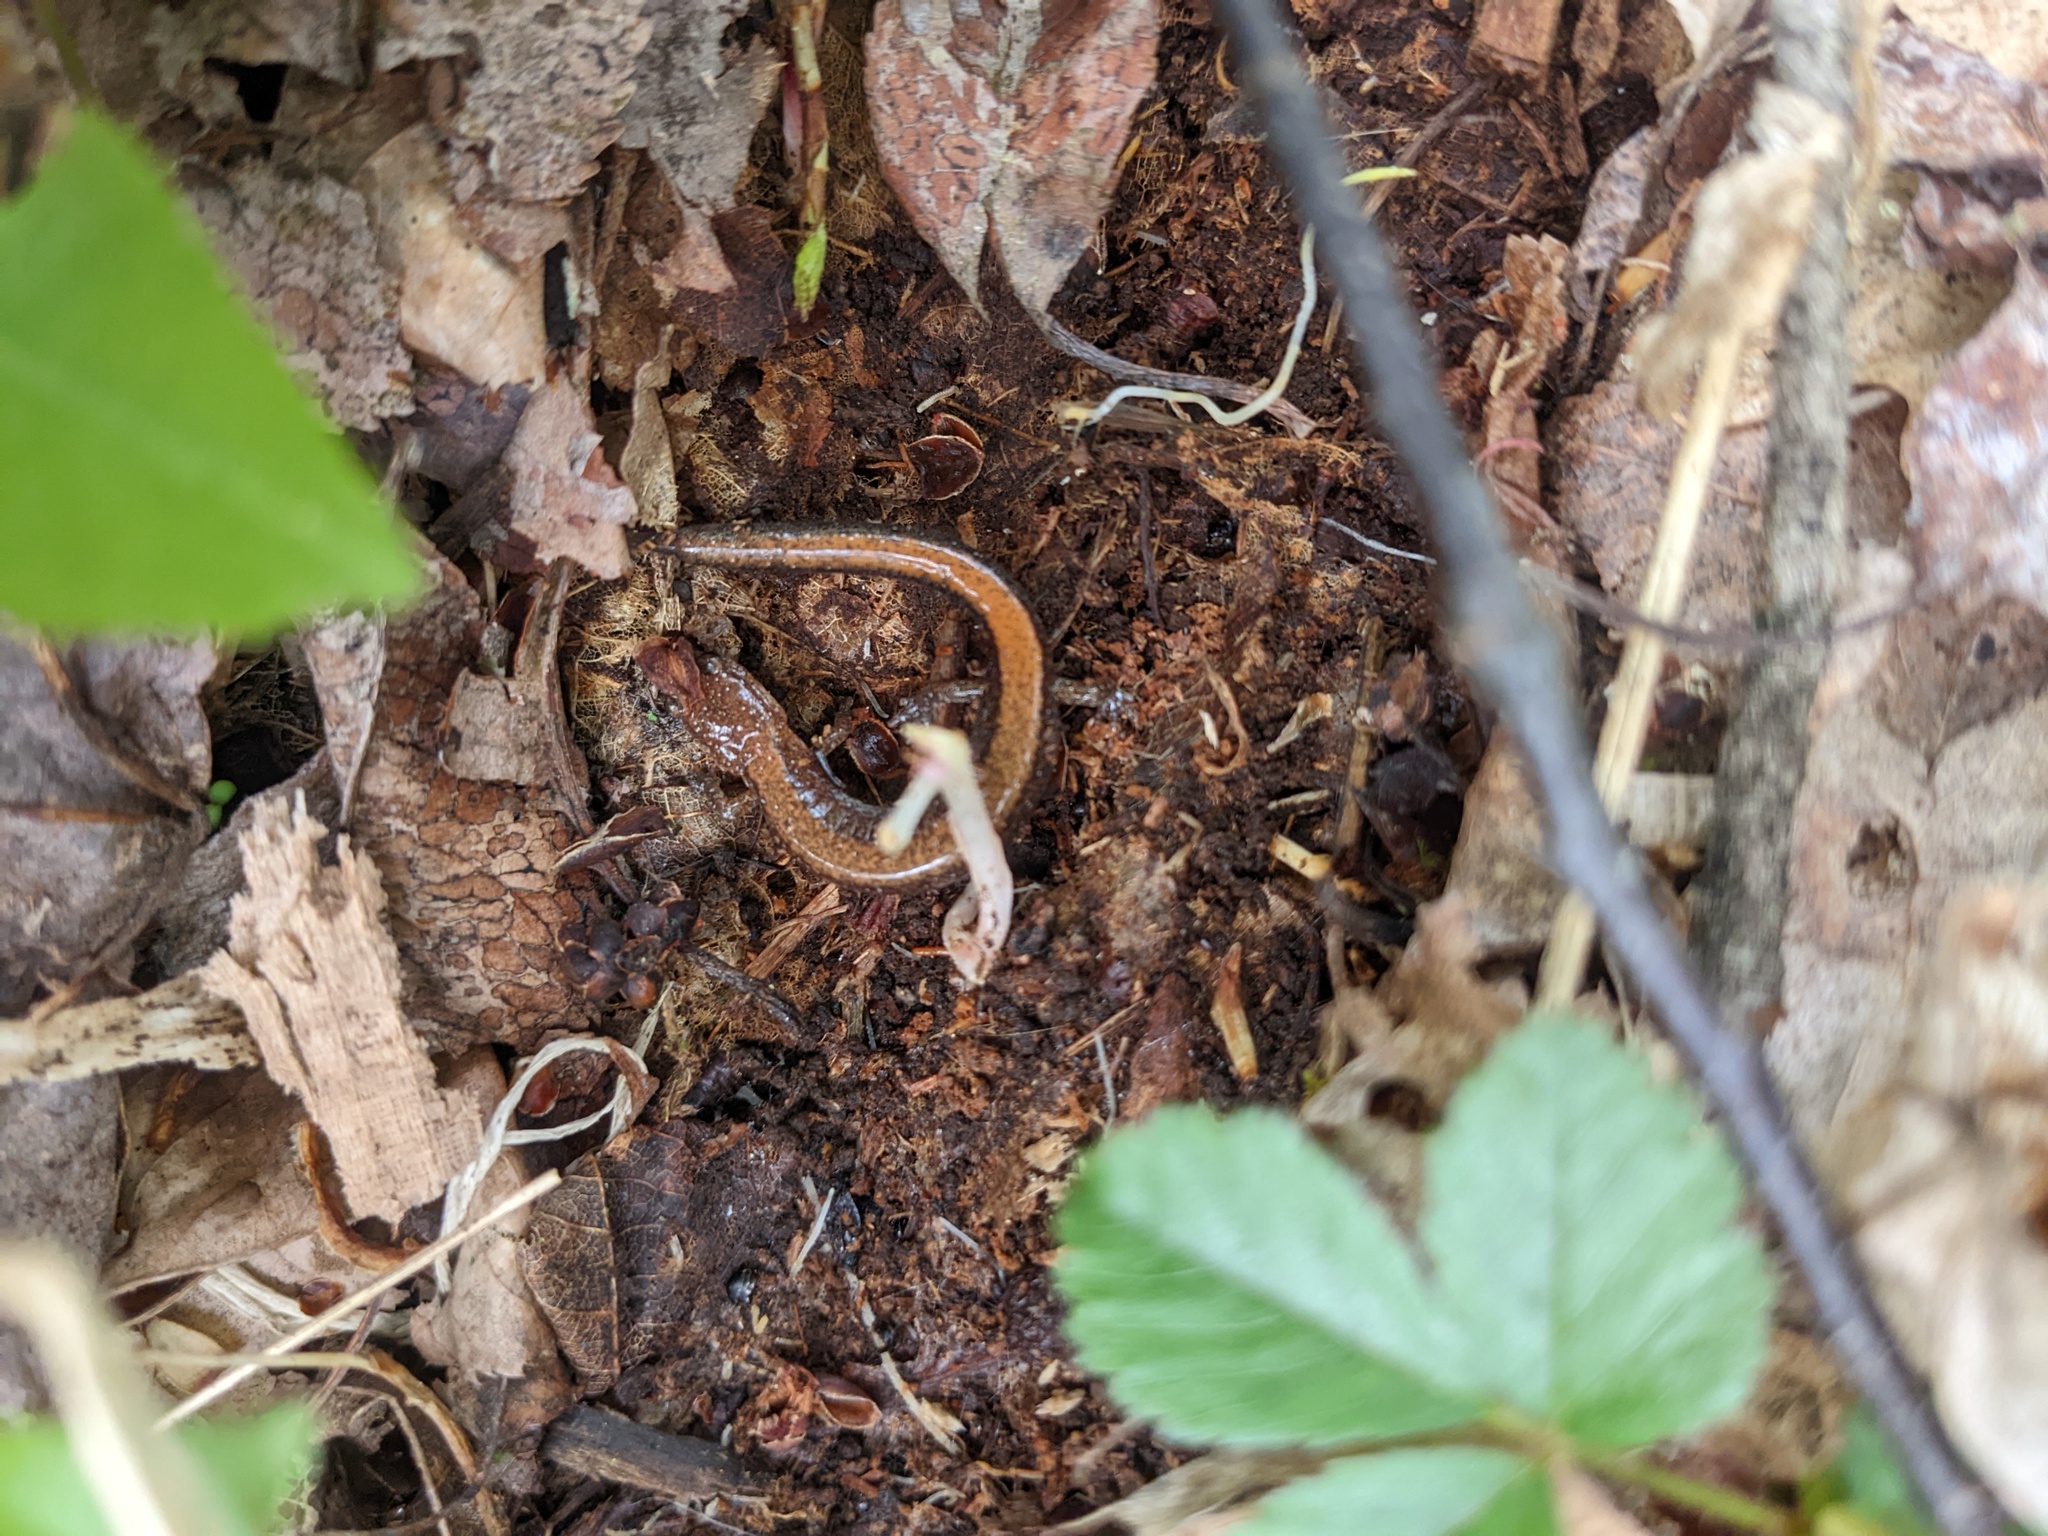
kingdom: Animalia
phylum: Chordata
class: Amphibia
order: Caudata
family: Plethodontidae
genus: Plethodon
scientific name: Plethodon cinereus
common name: Redback salamander
